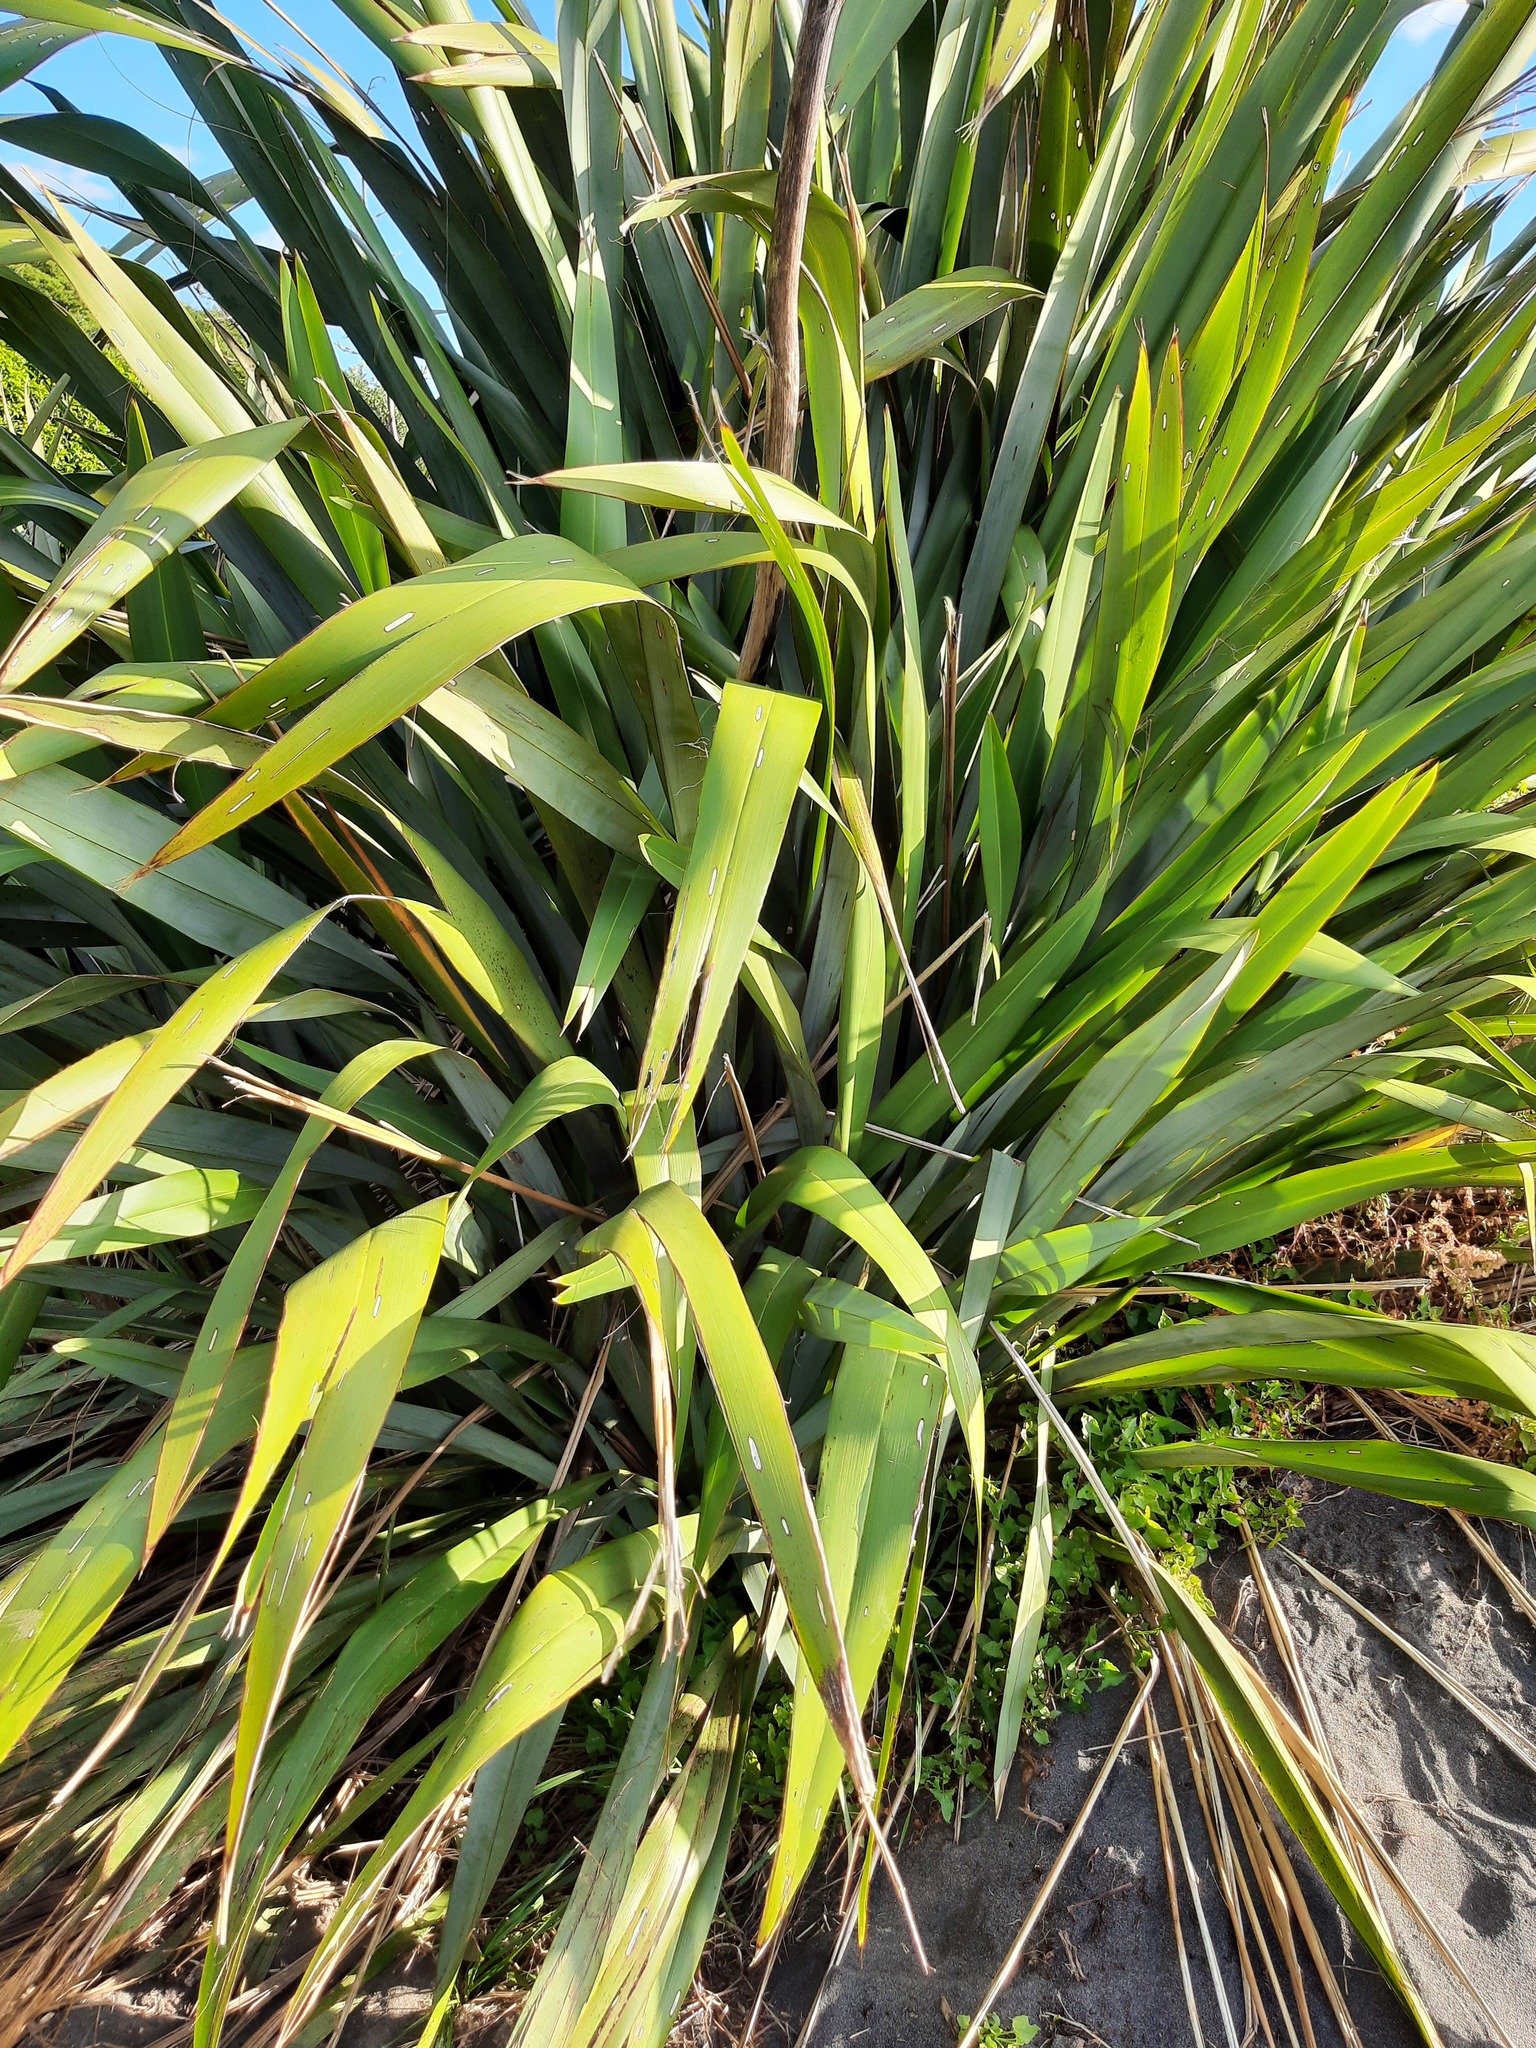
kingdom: Plantae
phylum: Tracheophyta
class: Liliopsida
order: Asparagales
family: Asphodelaceae
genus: Phormium
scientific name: Phormium tenax
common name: New zealand flax
